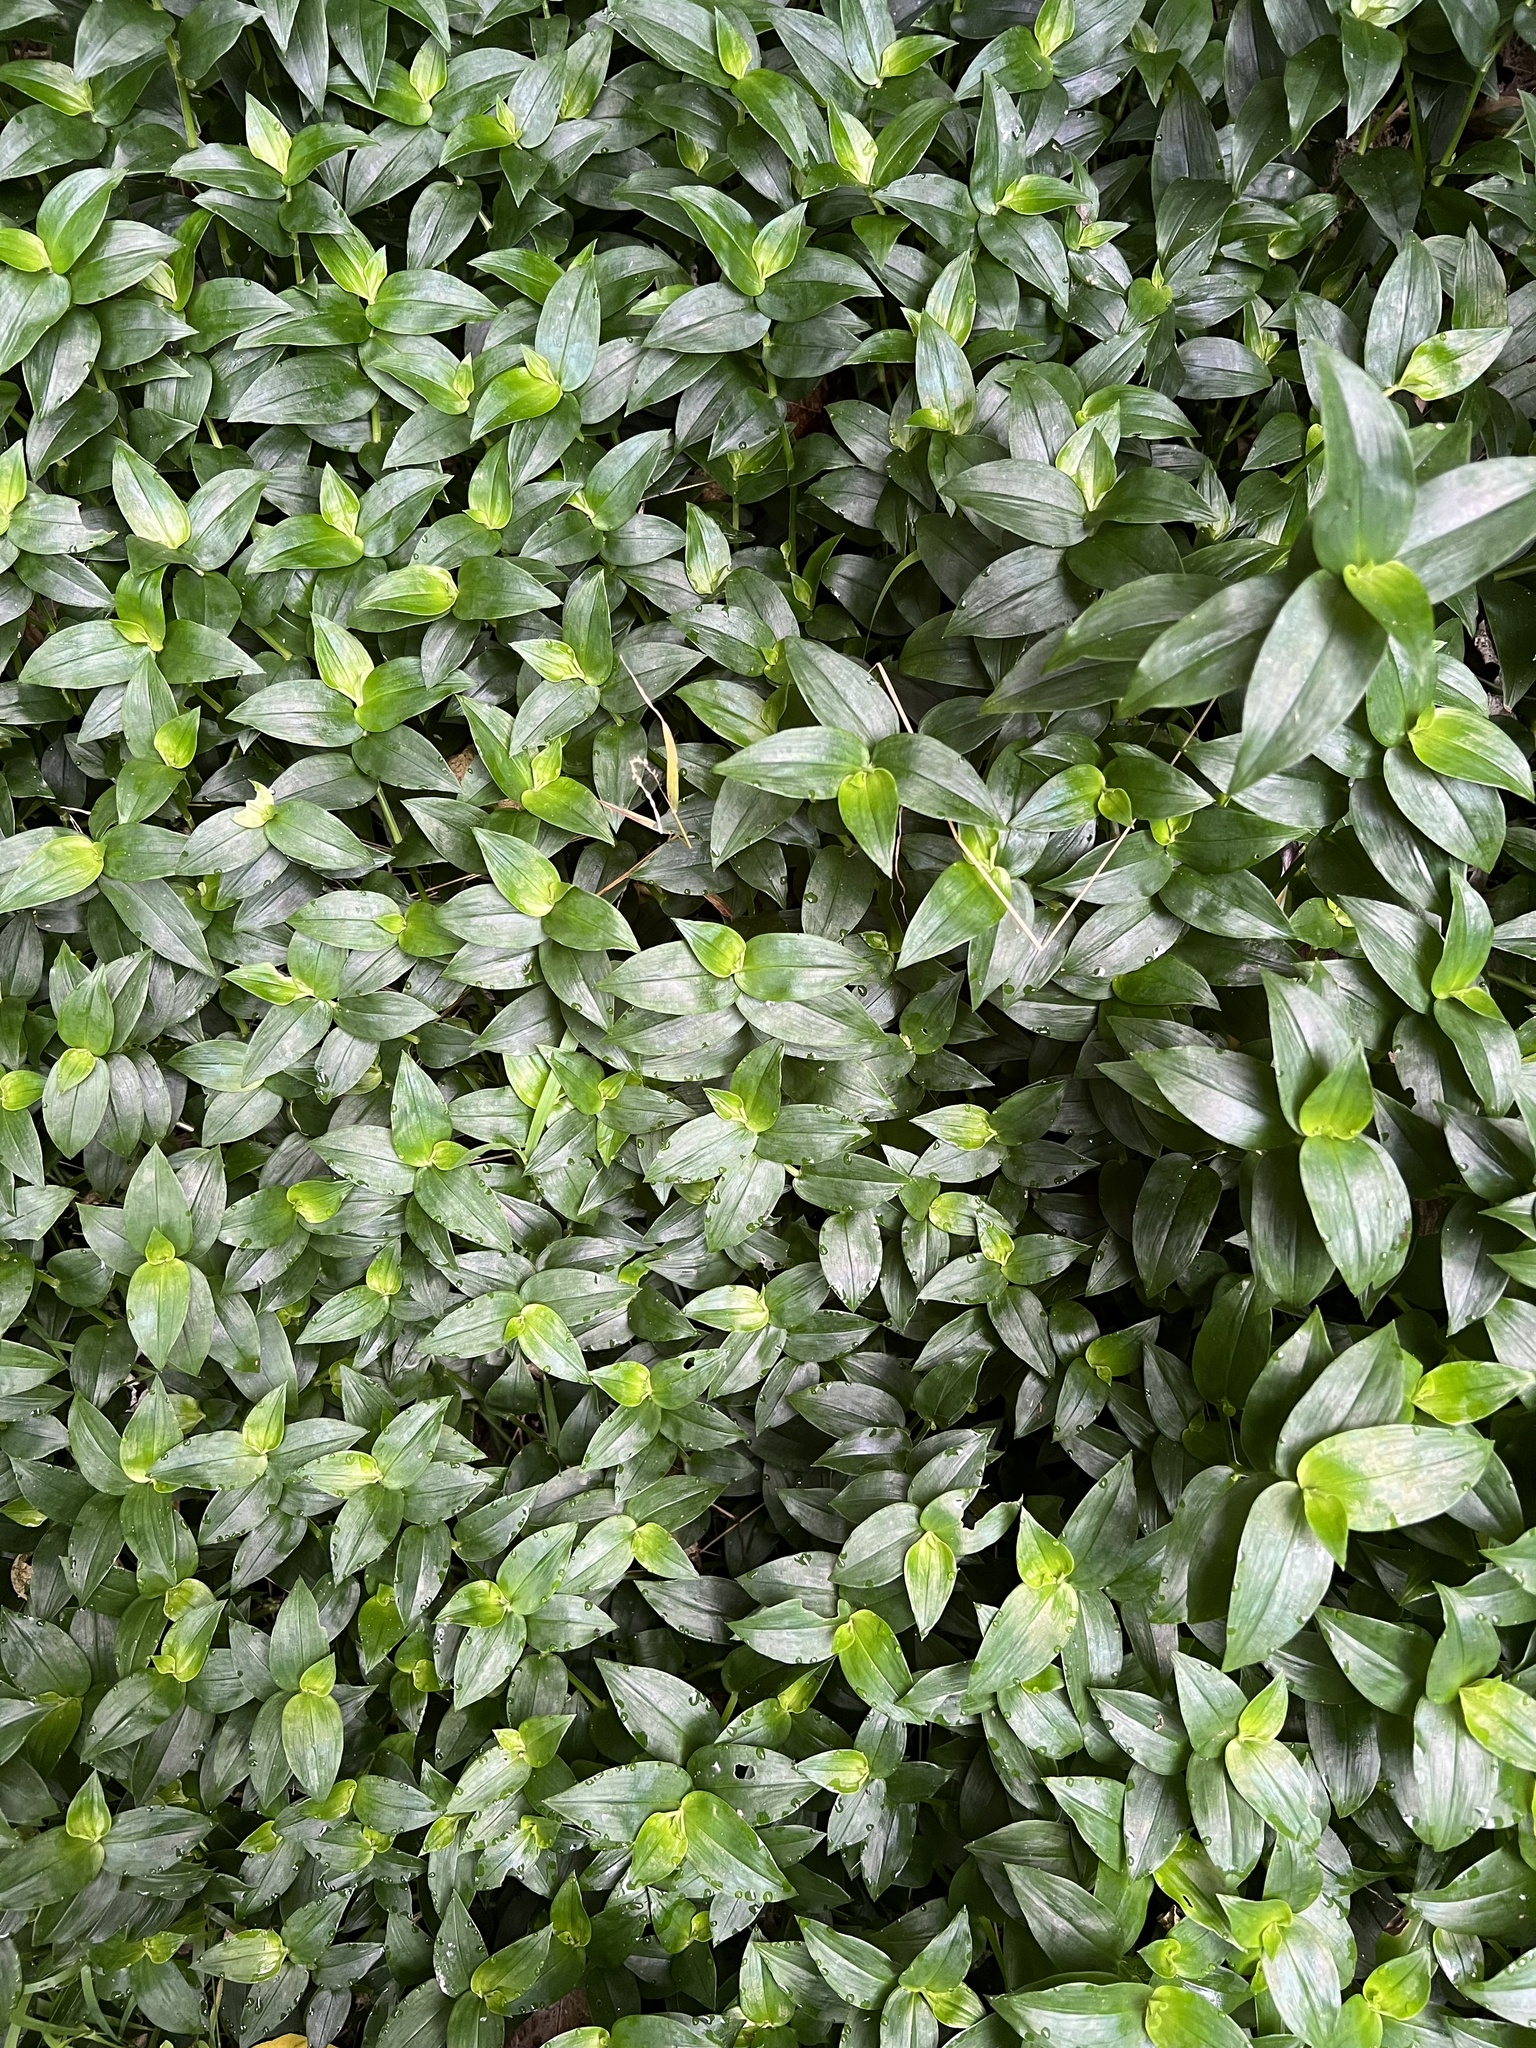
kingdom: Plantae
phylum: Tracheophyta
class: Liliopsida
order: Commelinales
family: Commelinaceae
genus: Tradescantia
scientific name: Tradescantia fluminensis
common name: Wandering-jew
